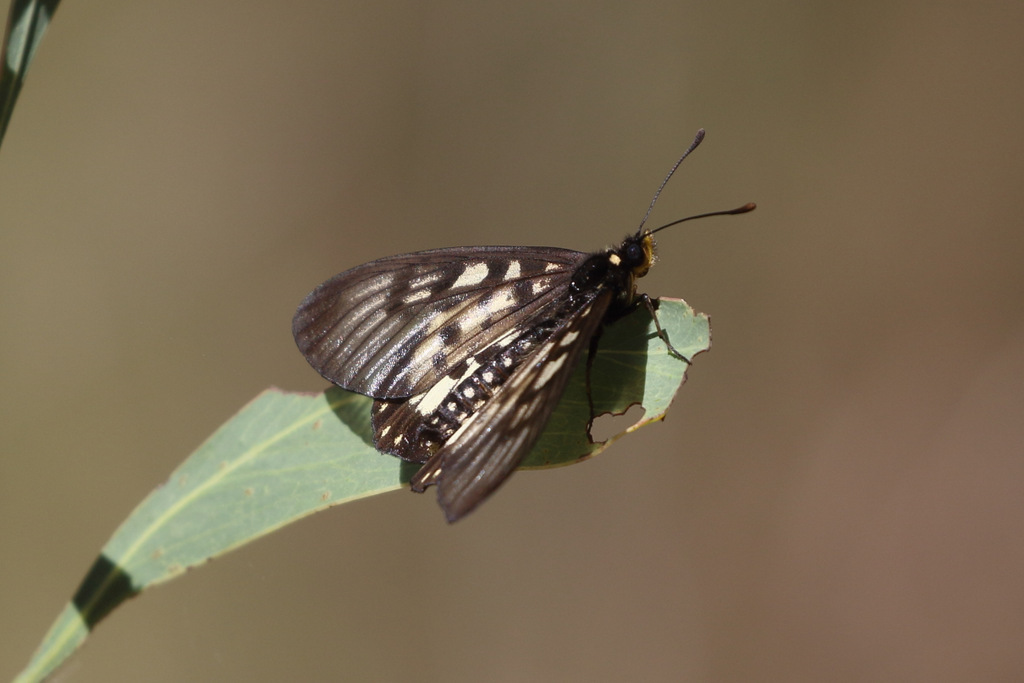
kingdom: Animalia
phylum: Arthropoda
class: Insecta
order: Lepidoptera
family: Nymphalidae
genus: Acraea
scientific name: Acraea andromacha
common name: Glasswing
